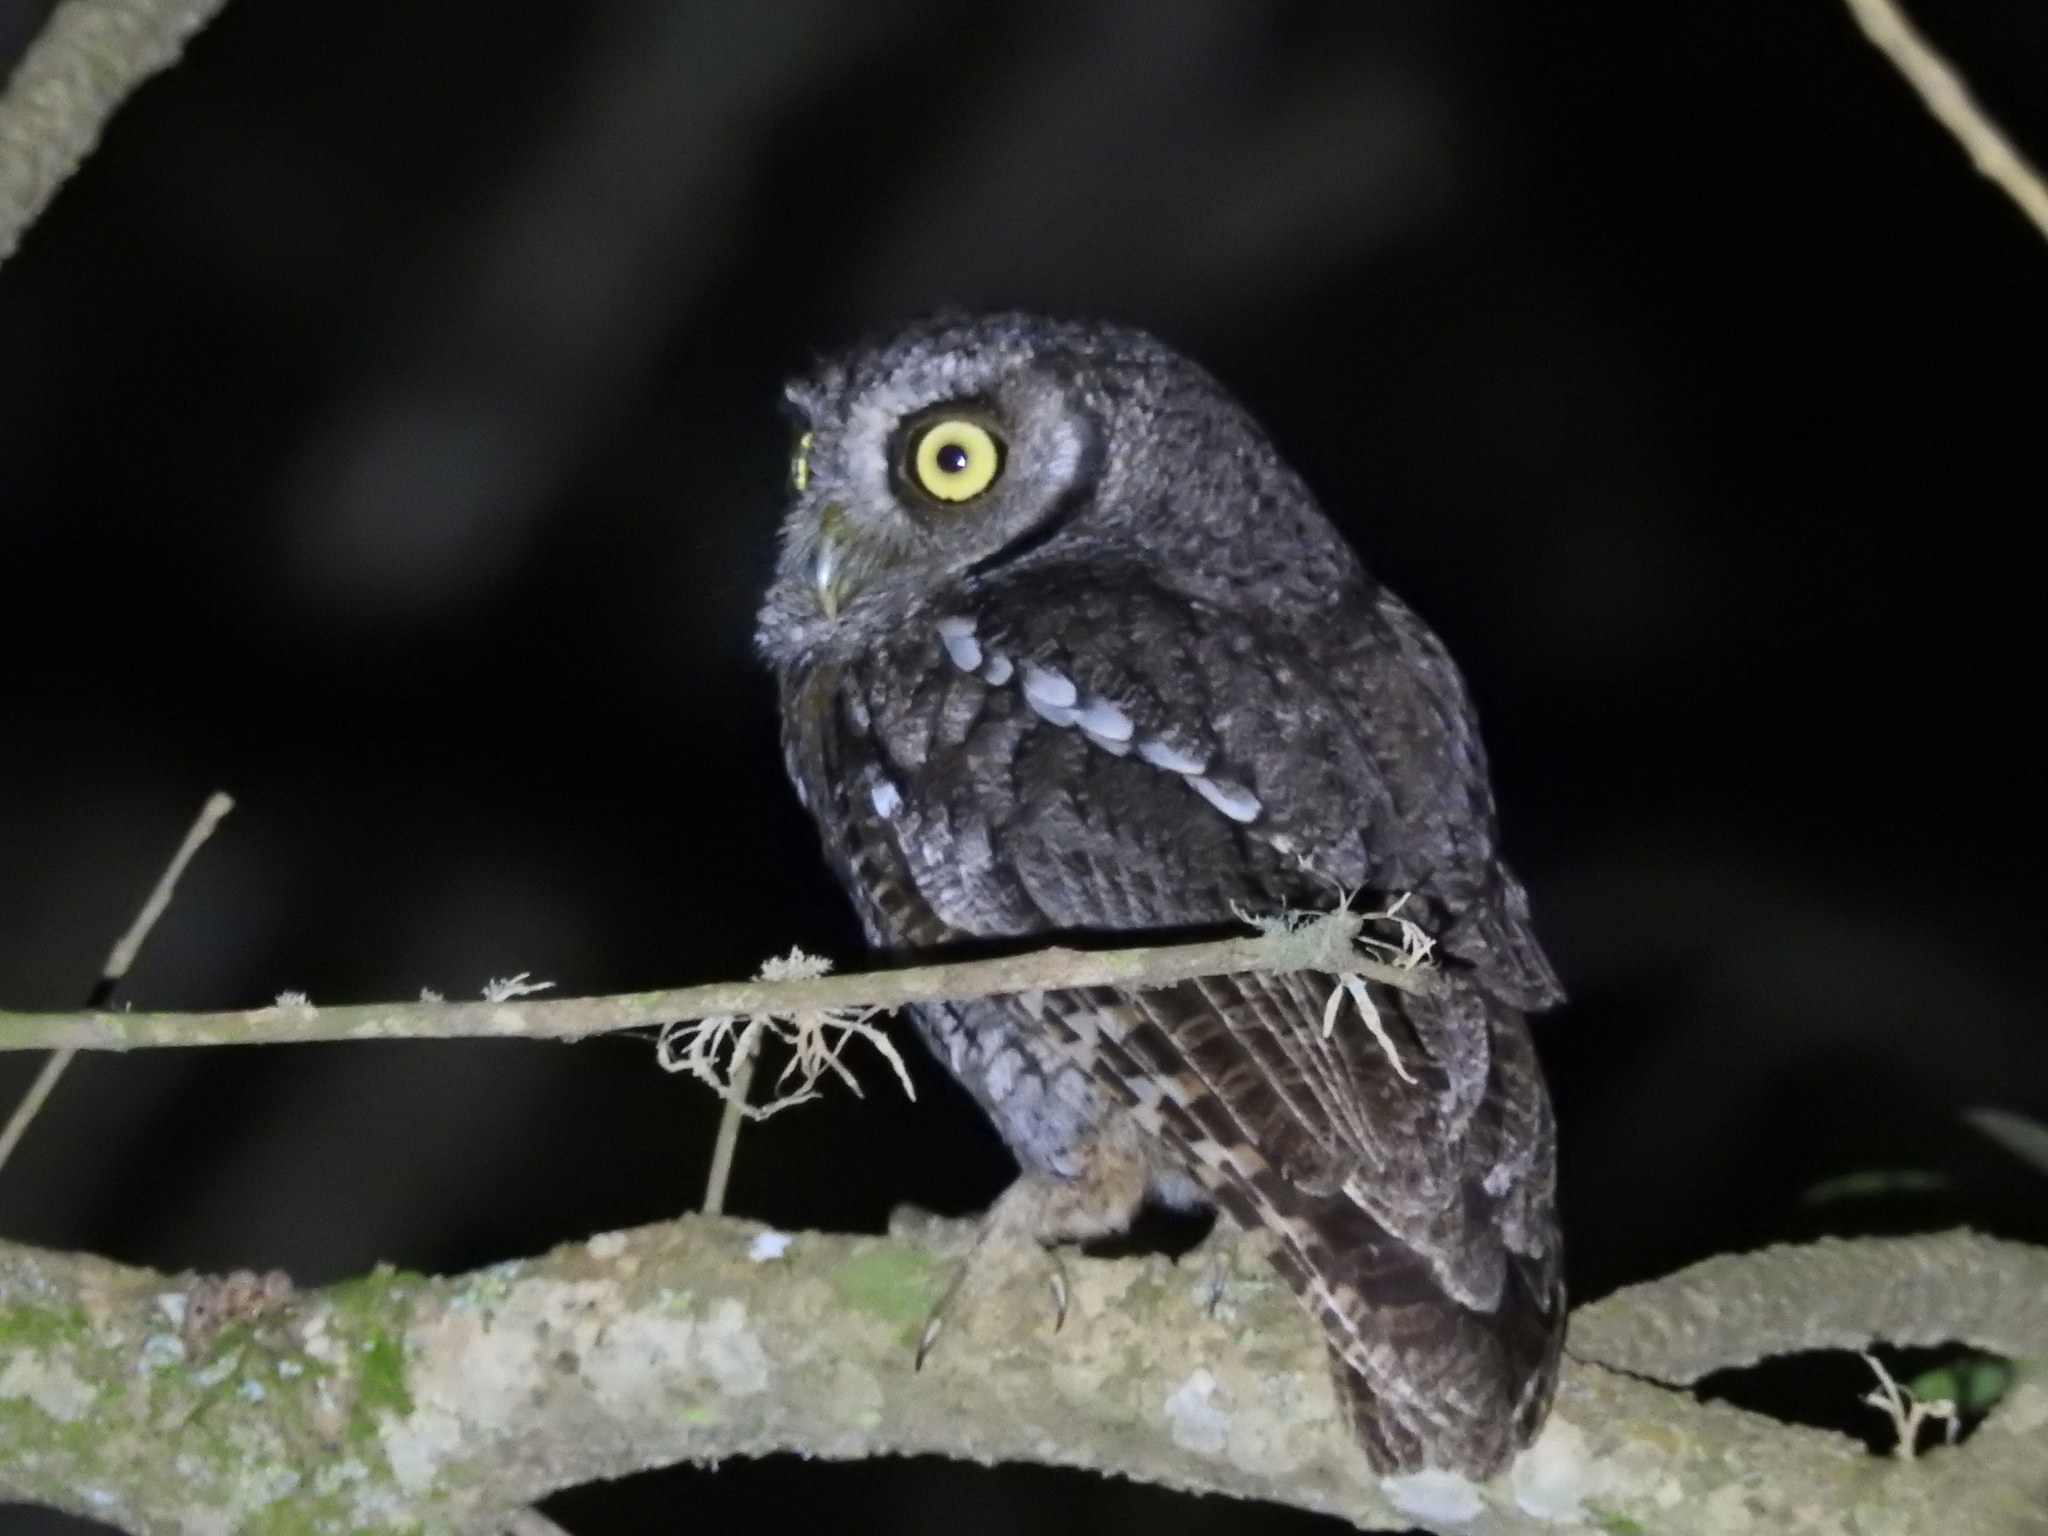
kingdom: Animalia
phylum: Chordata
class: Aves
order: Strigiformes
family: Strigidae
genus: Megascops
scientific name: Megascops choliba
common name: Tropical screech-owl
